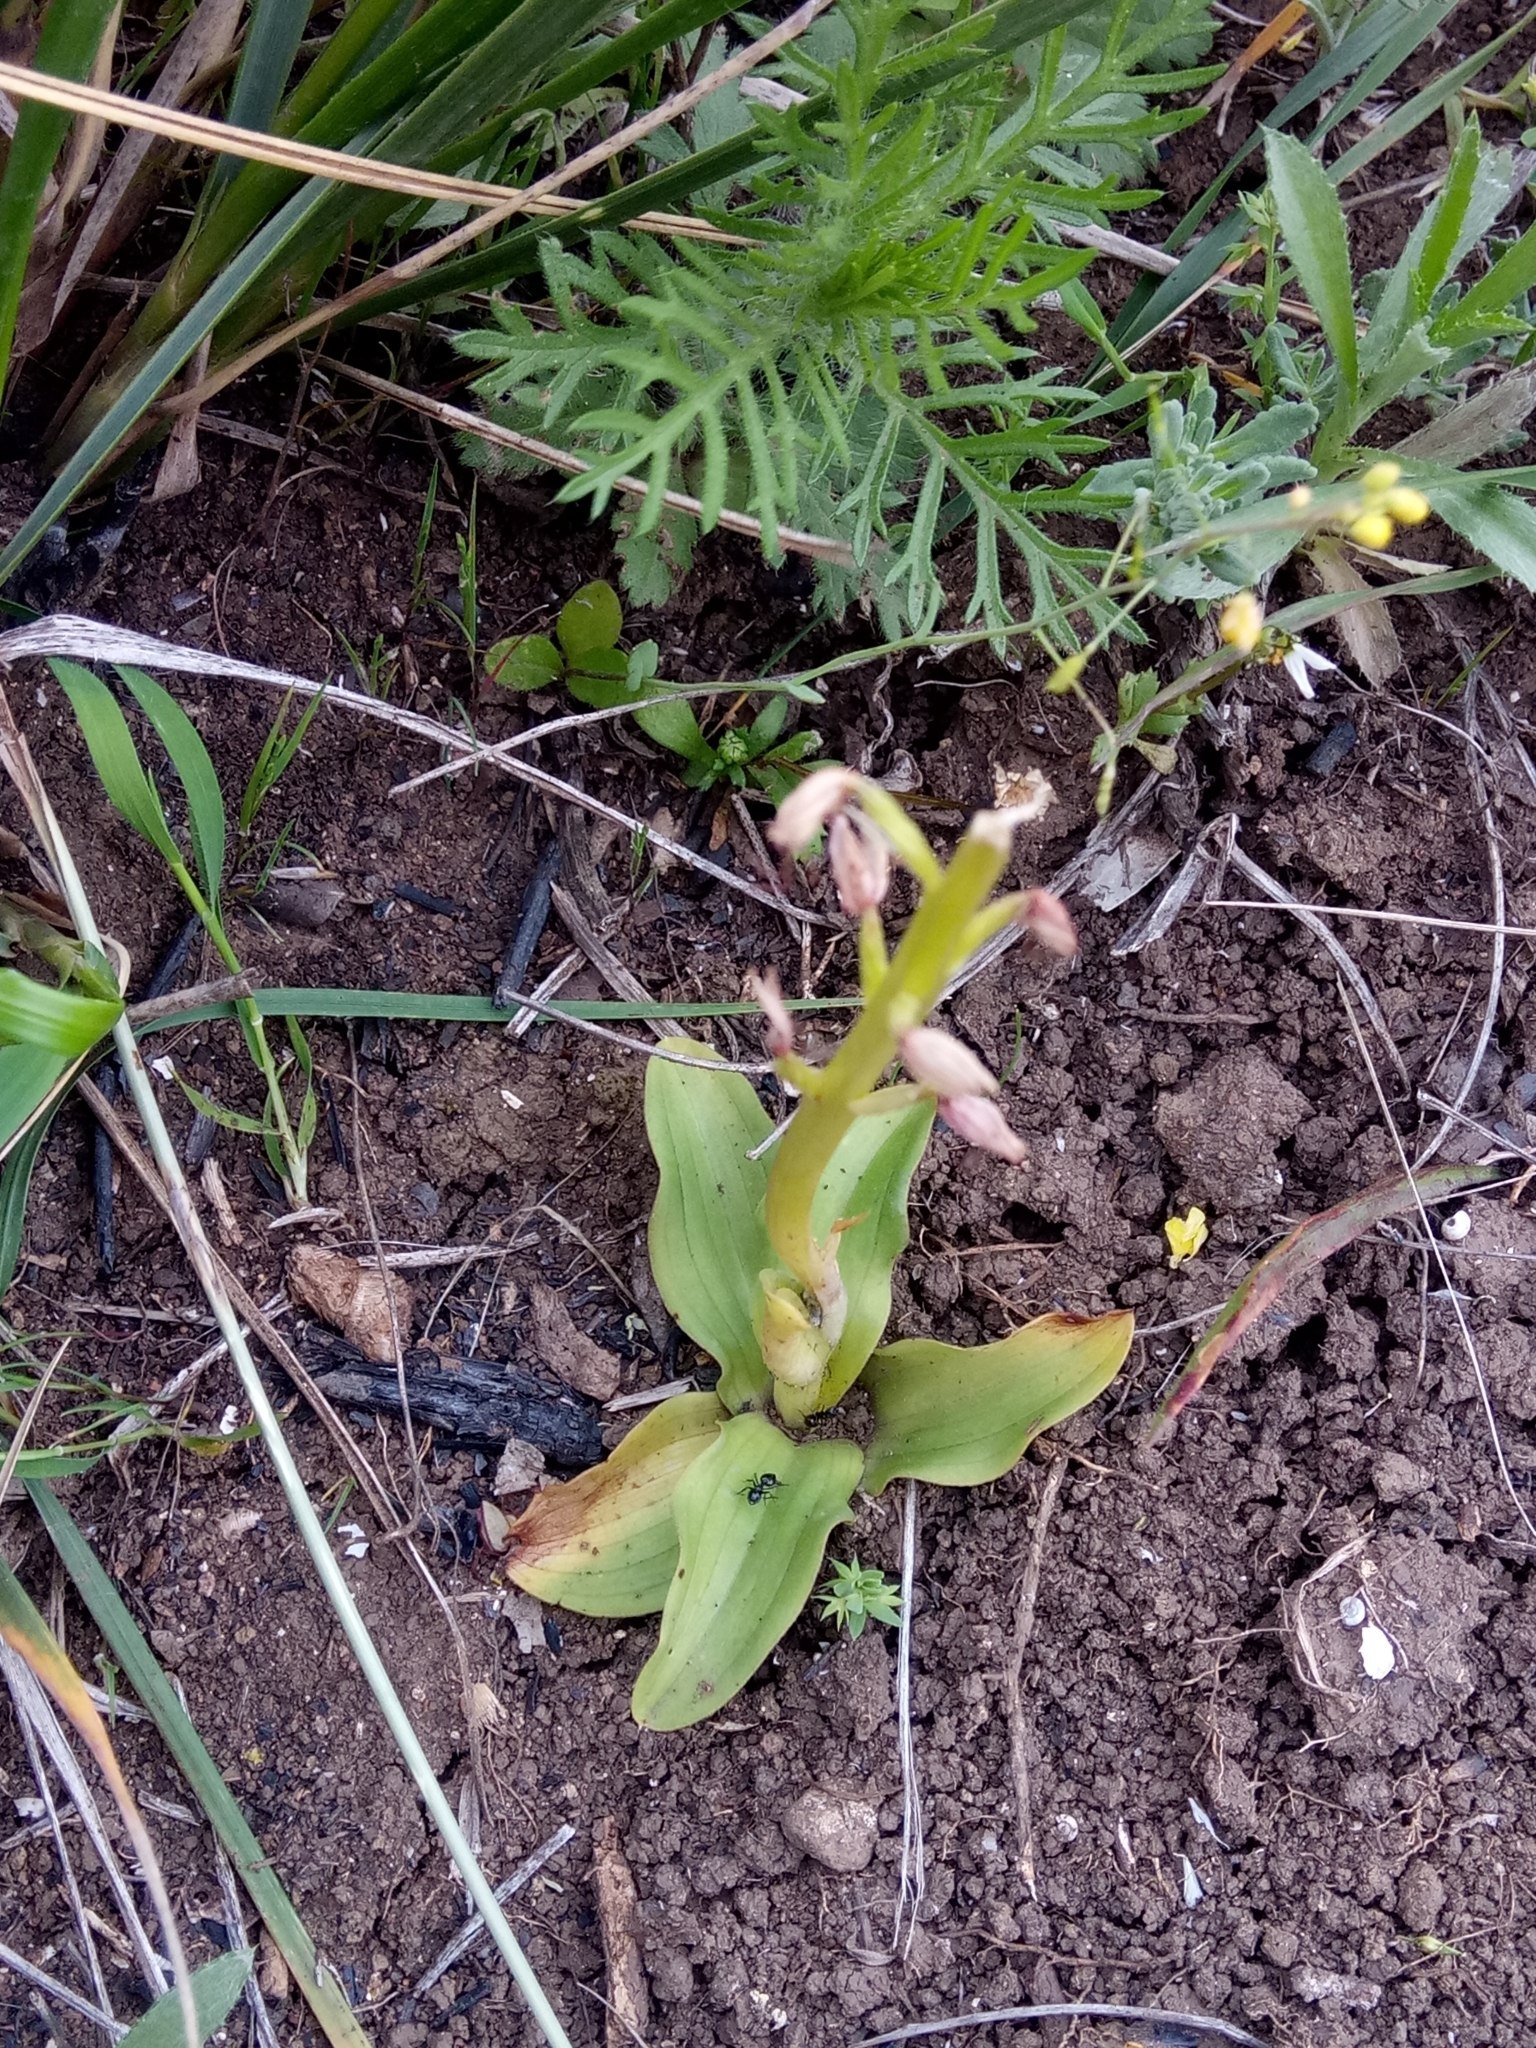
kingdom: Plantae
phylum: Tracheophyta
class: Liliopsida
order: Asparagales
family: Orchidaceae
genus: Orchis
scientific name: Orchis anthropophora
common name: Man orchid
